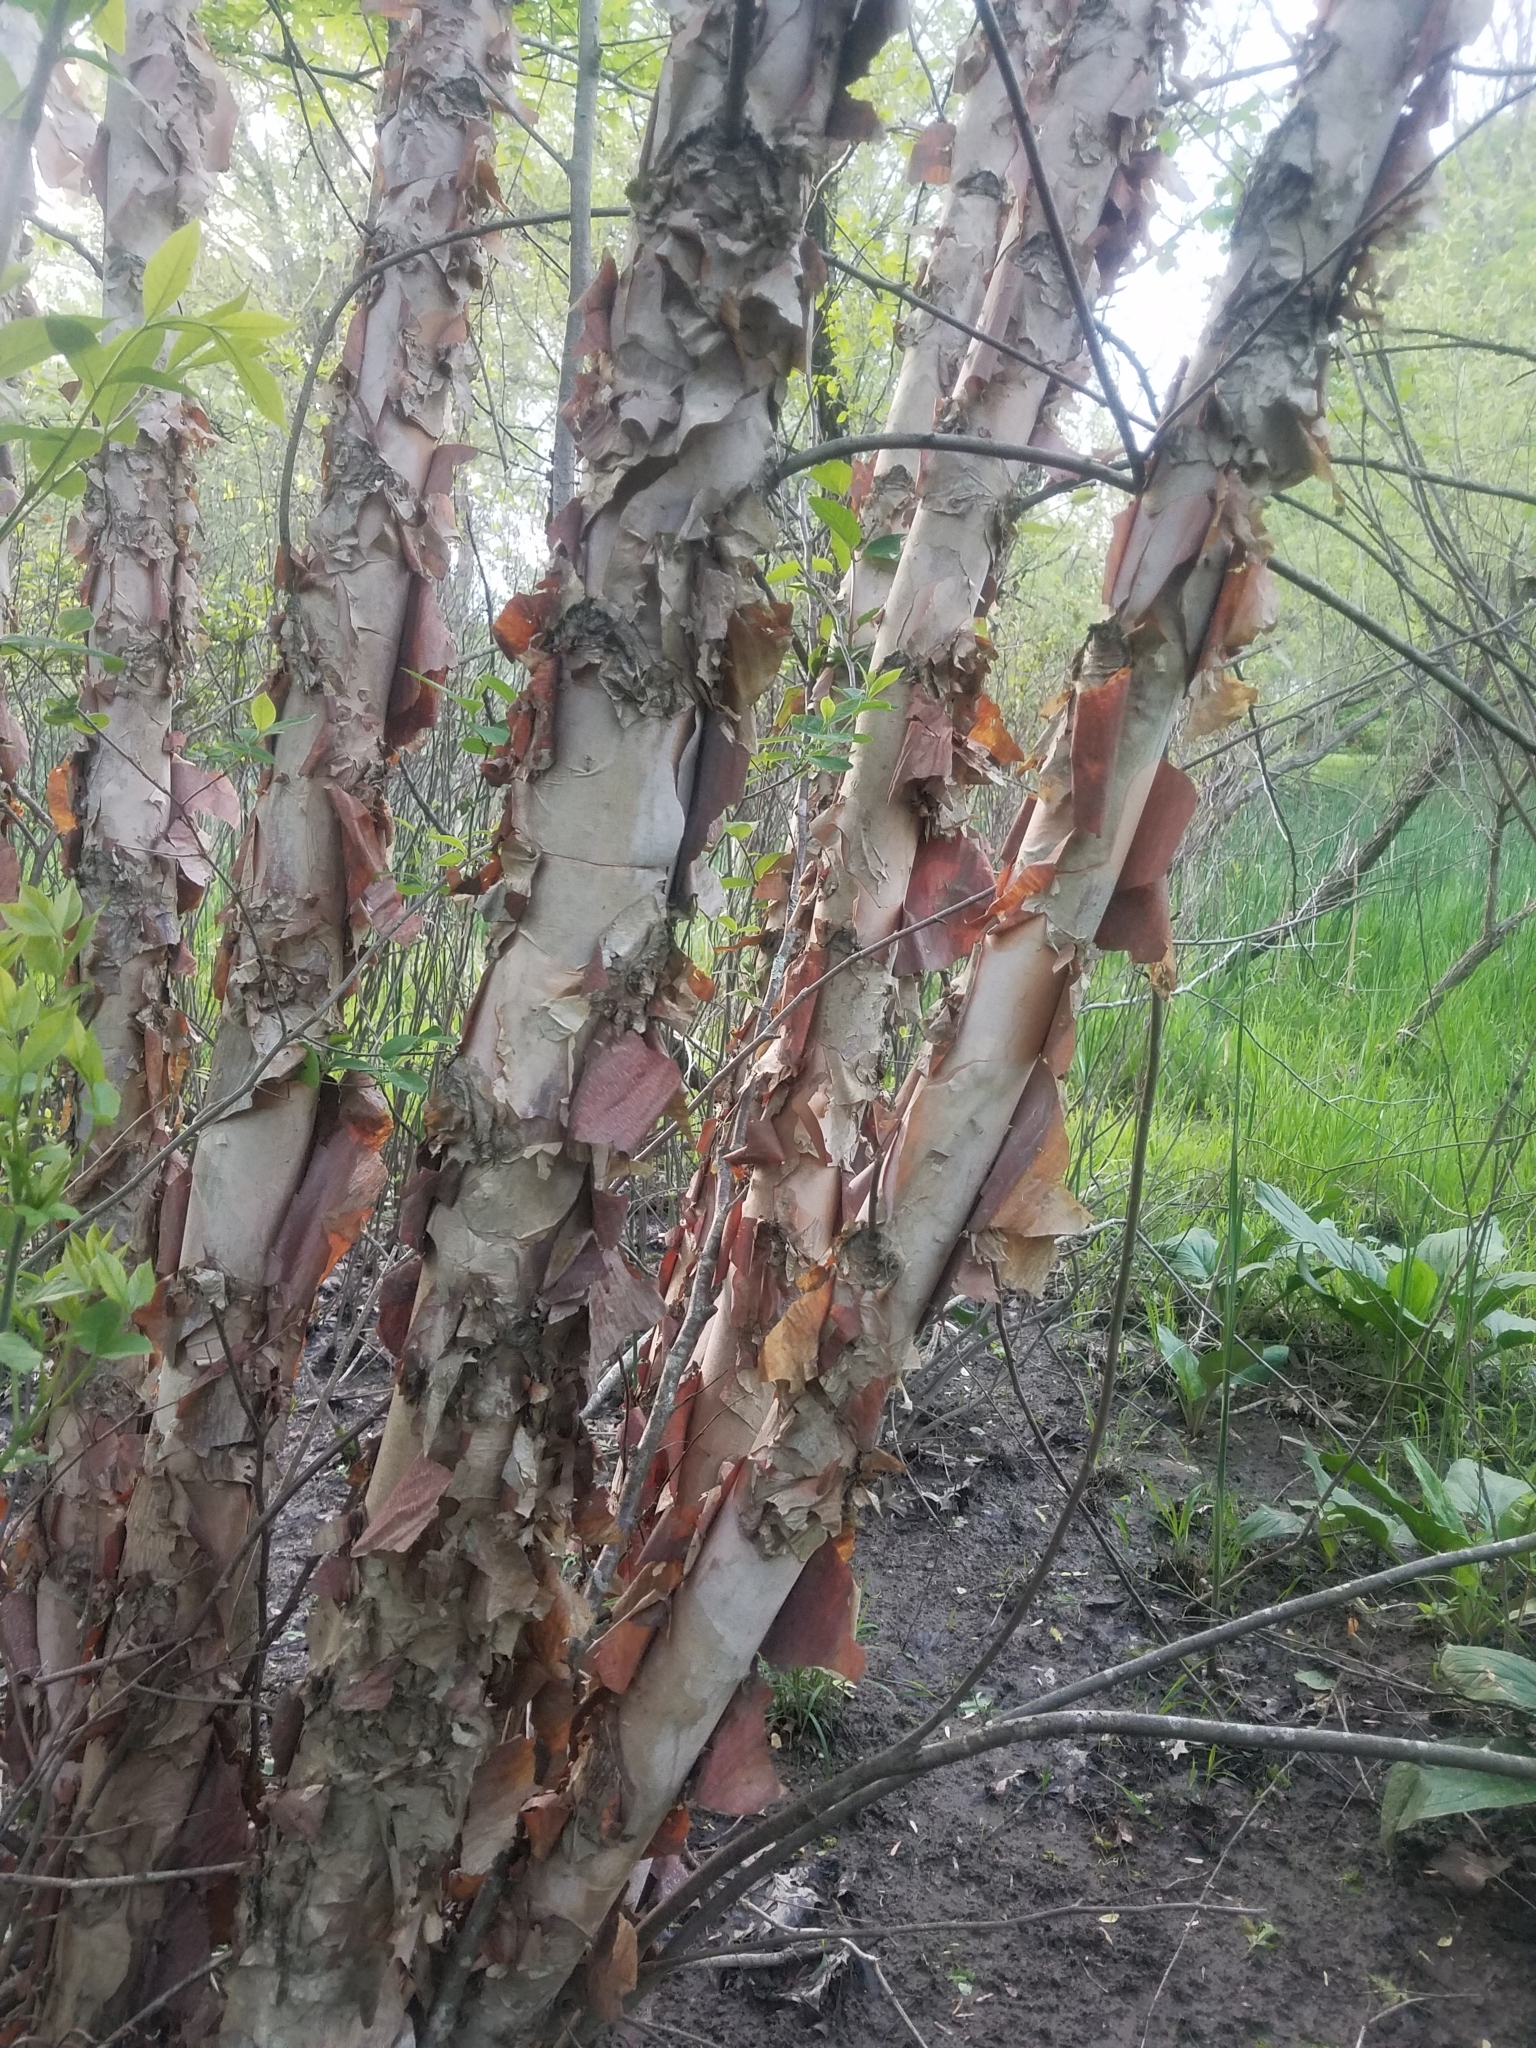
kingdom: Plantae
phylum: Tracheophyta
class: Magnoliopsida
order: Fagales
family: Betulaceae
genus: Betula
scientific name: Betula nigra
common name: Black birch
